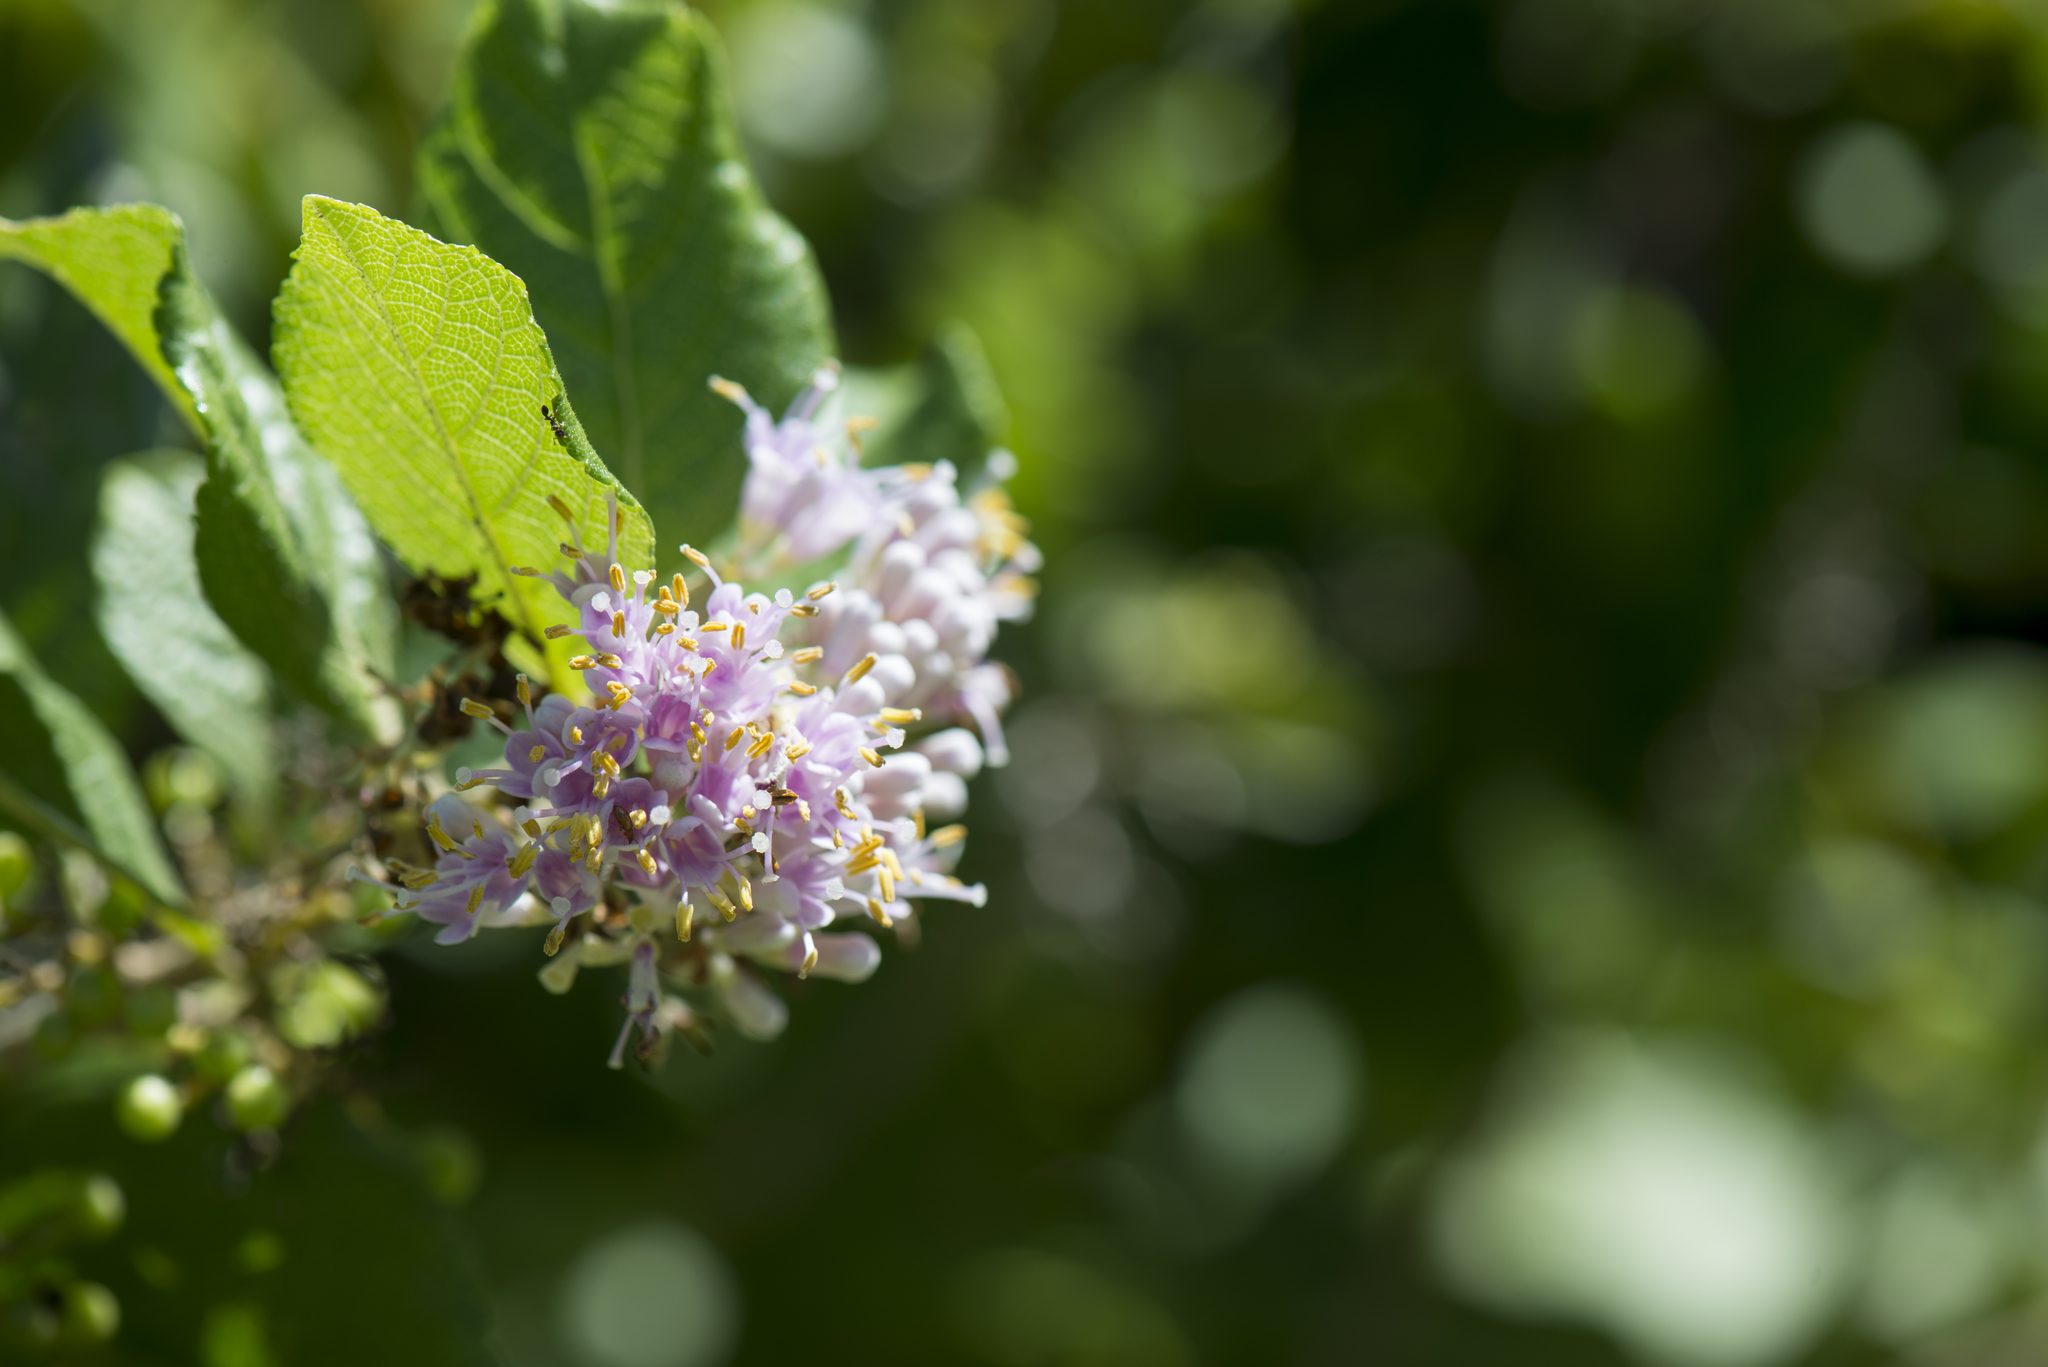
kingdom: Plantae
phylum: Tracheophyta
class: Magnoliopsida
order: Lamiales
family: Lamiaceae
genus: Callicarpa
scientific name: Callicarpa japonica
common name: Japanese beauty-berry
